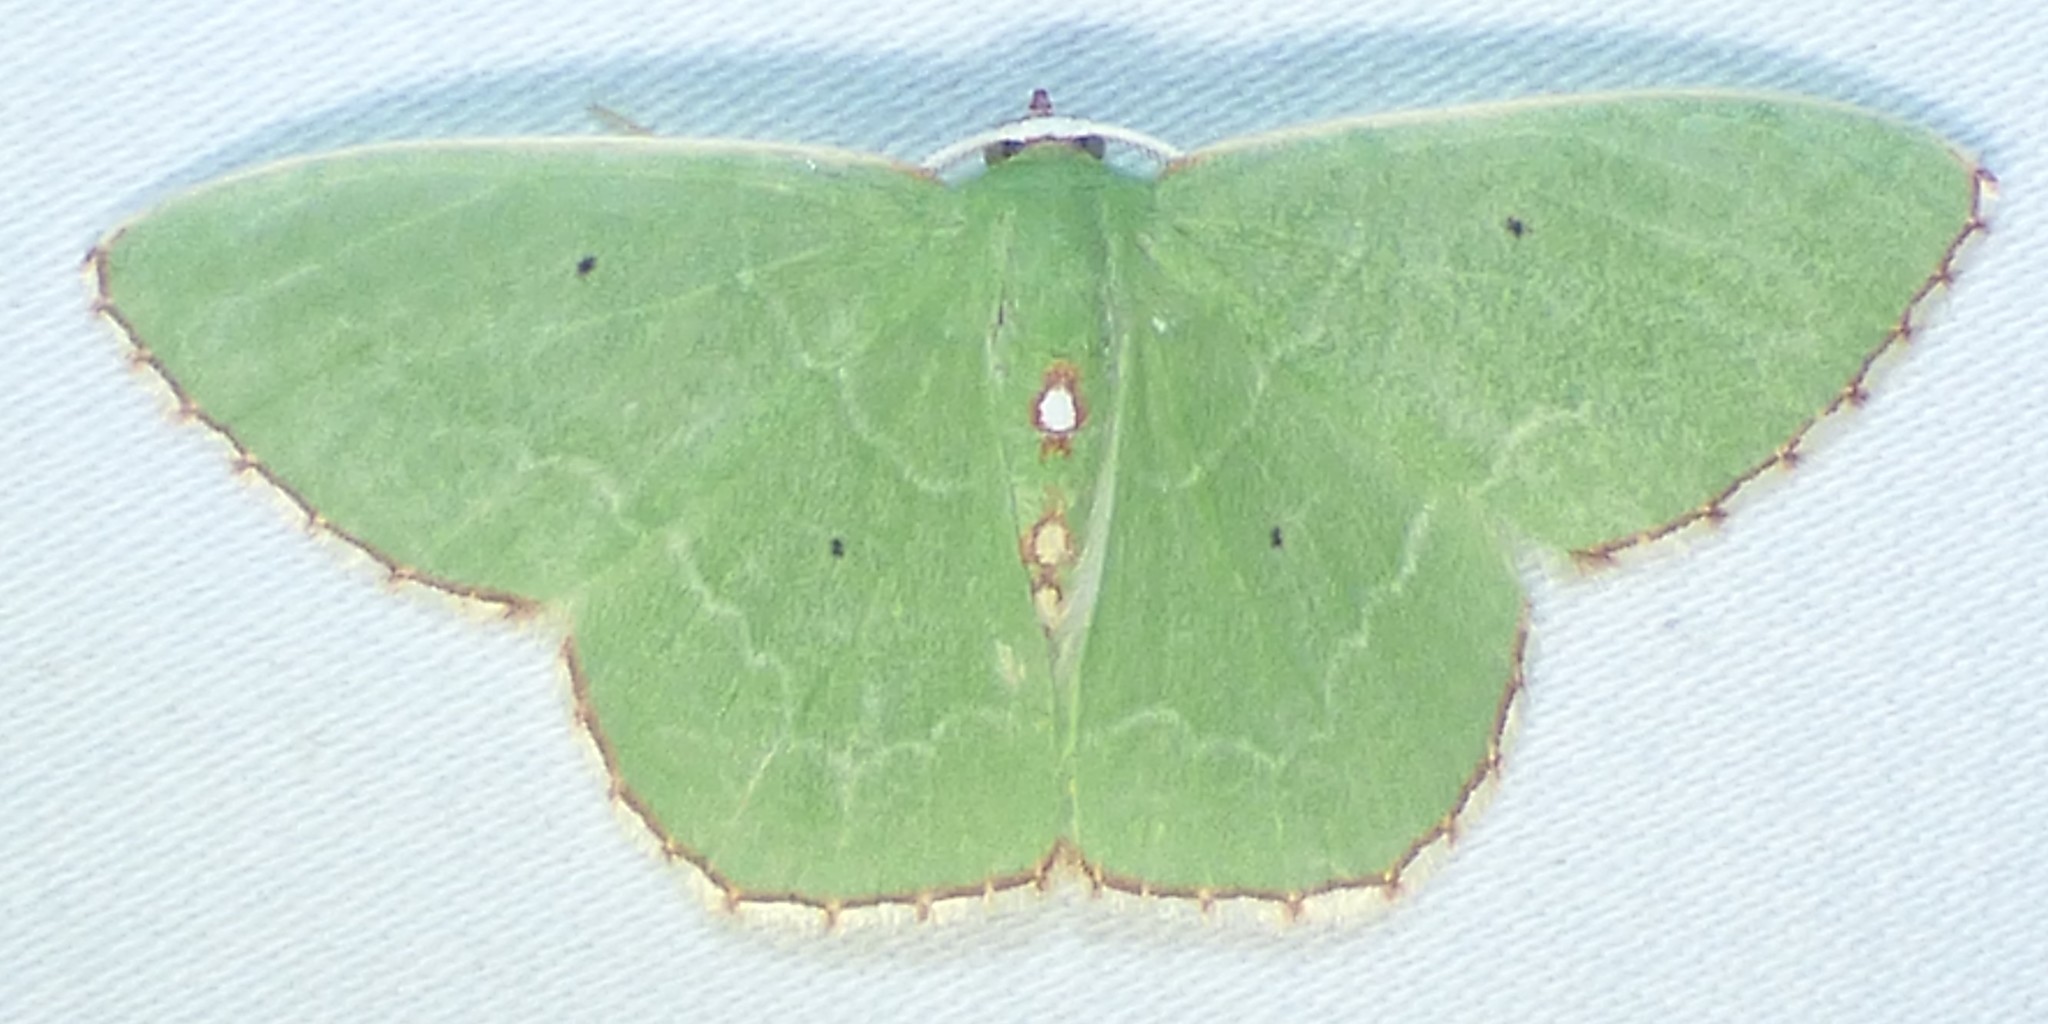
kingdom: Animalia
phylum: Arthropoda
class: Insecta
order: Lepidoptera
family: Geometridae
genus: Nemoria
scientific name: Nemoria lixaria
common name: Red-bordered emerald
